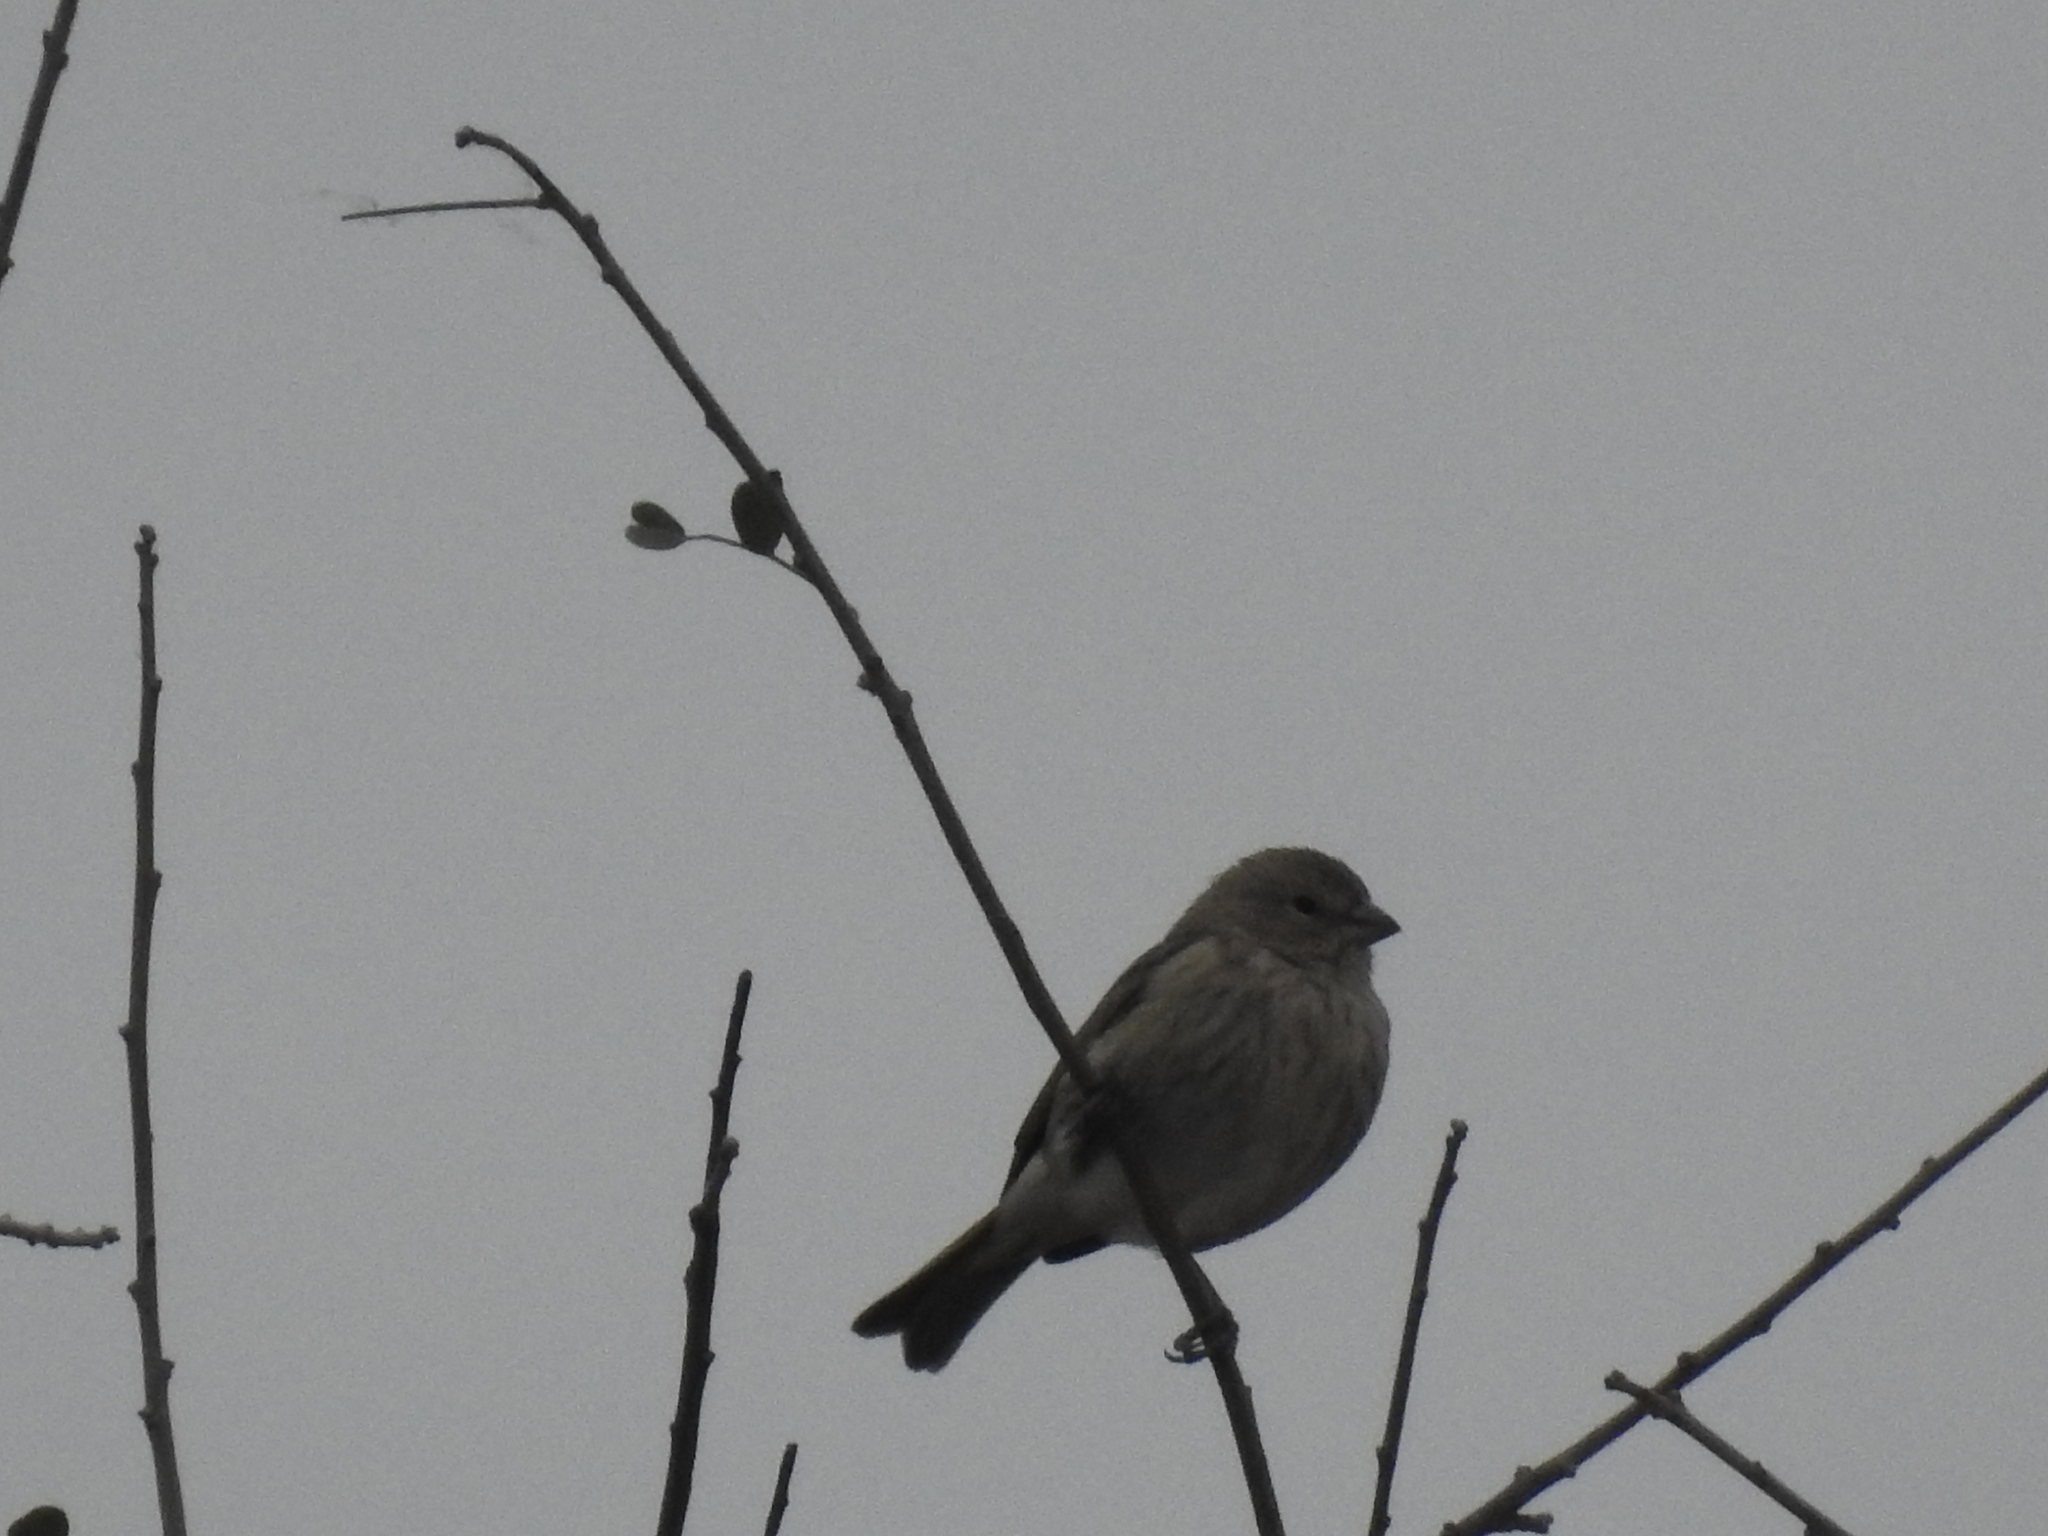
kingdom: Animalia
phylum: Chordata
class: Aves
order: Passeriformes
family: Thraupidae
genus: Sicalis
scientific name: Sicalis flaveola
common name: Saffron finch
